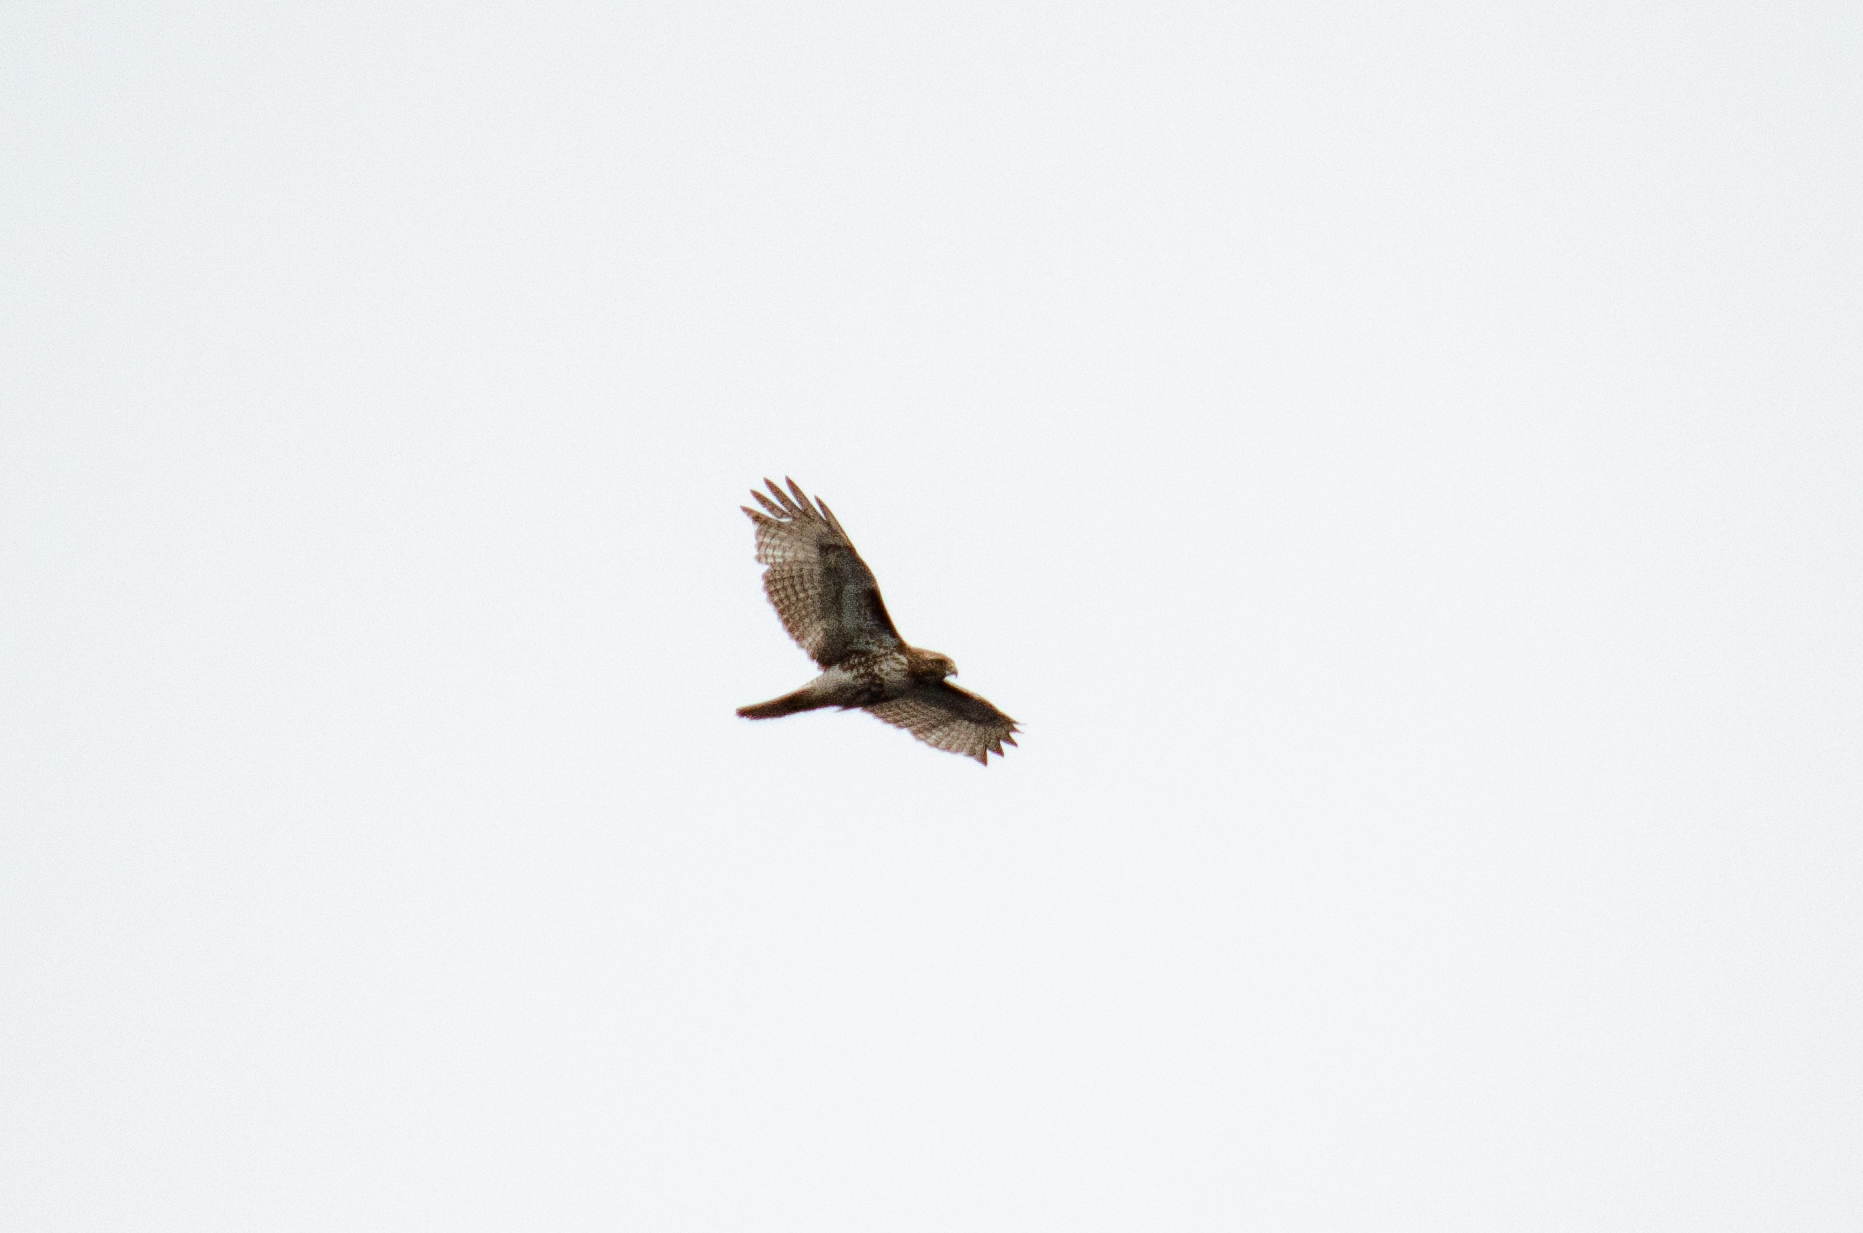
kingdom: Animalia
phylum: Chordata
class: Aves
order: Accipitriformes
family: Accipitridae
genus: Buteo
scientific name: Buteo jamaicensis
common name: Red-tailed hawk
